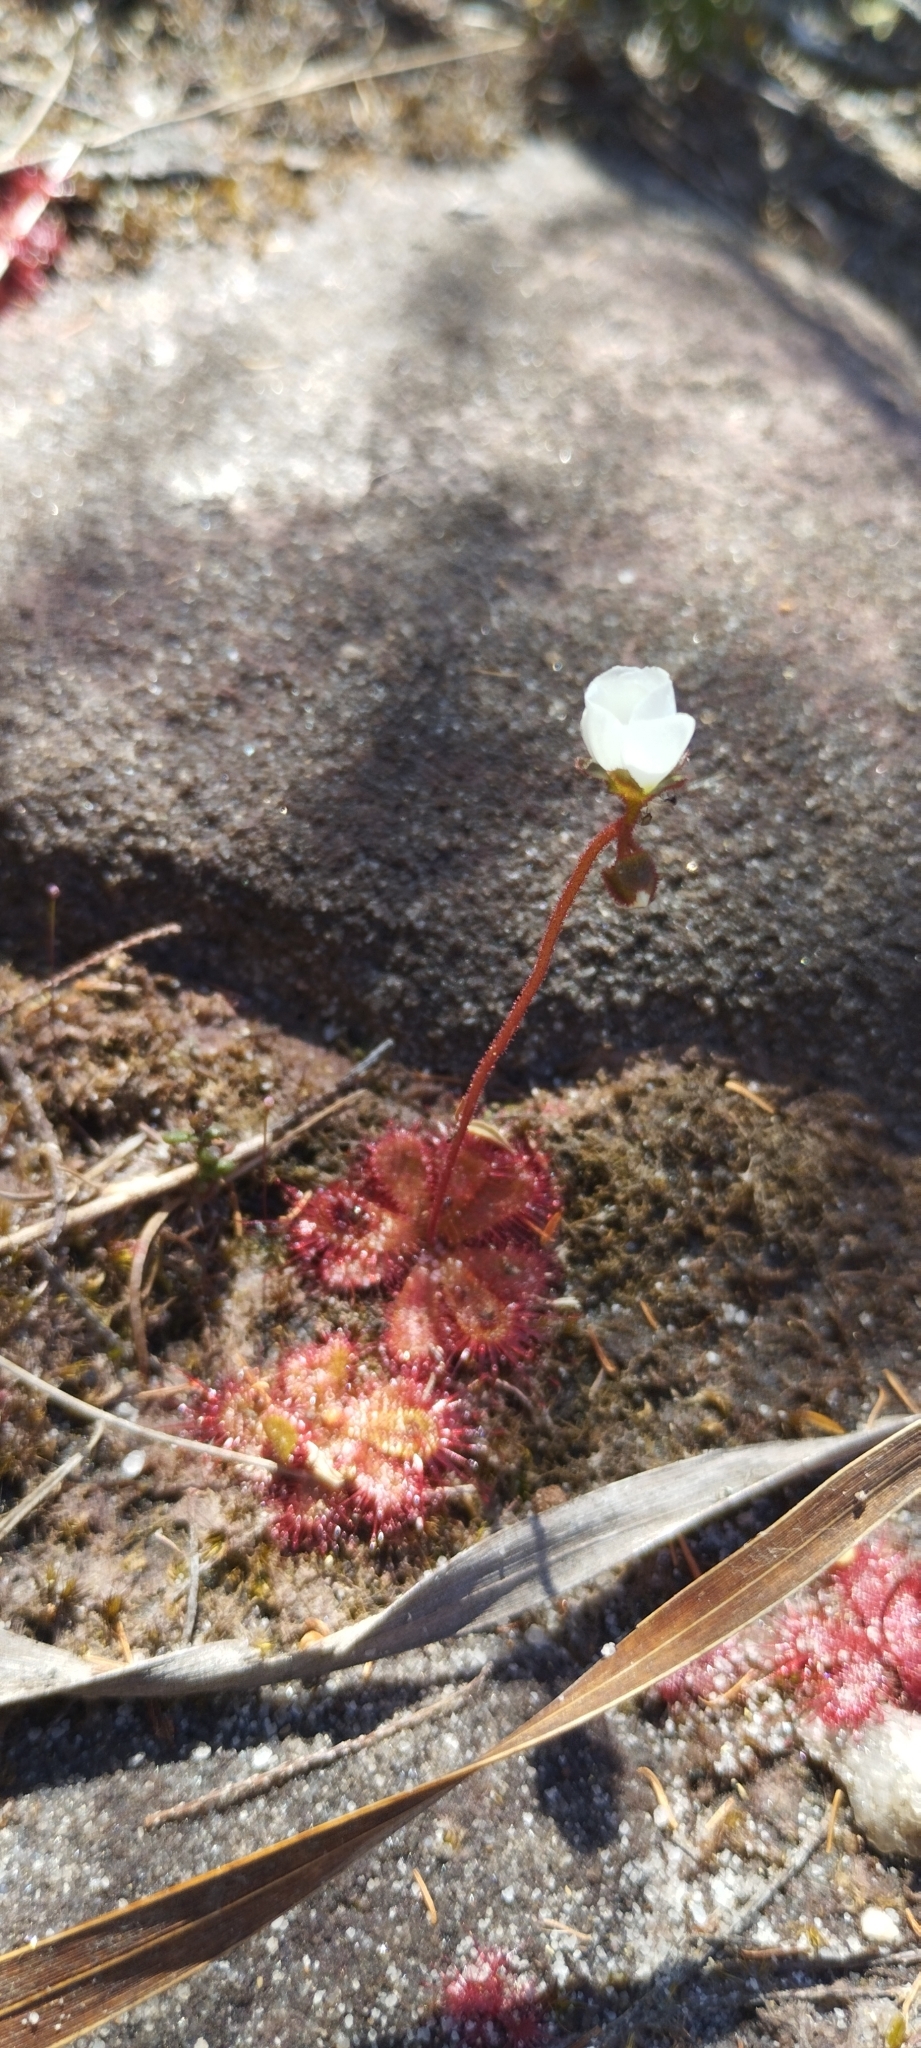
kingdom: Plantae
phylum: Tracheophyta
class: Magnoliopsida
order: Caryophyllales
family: Droseraceae
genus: Drosera
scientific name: Drosera trinervia
